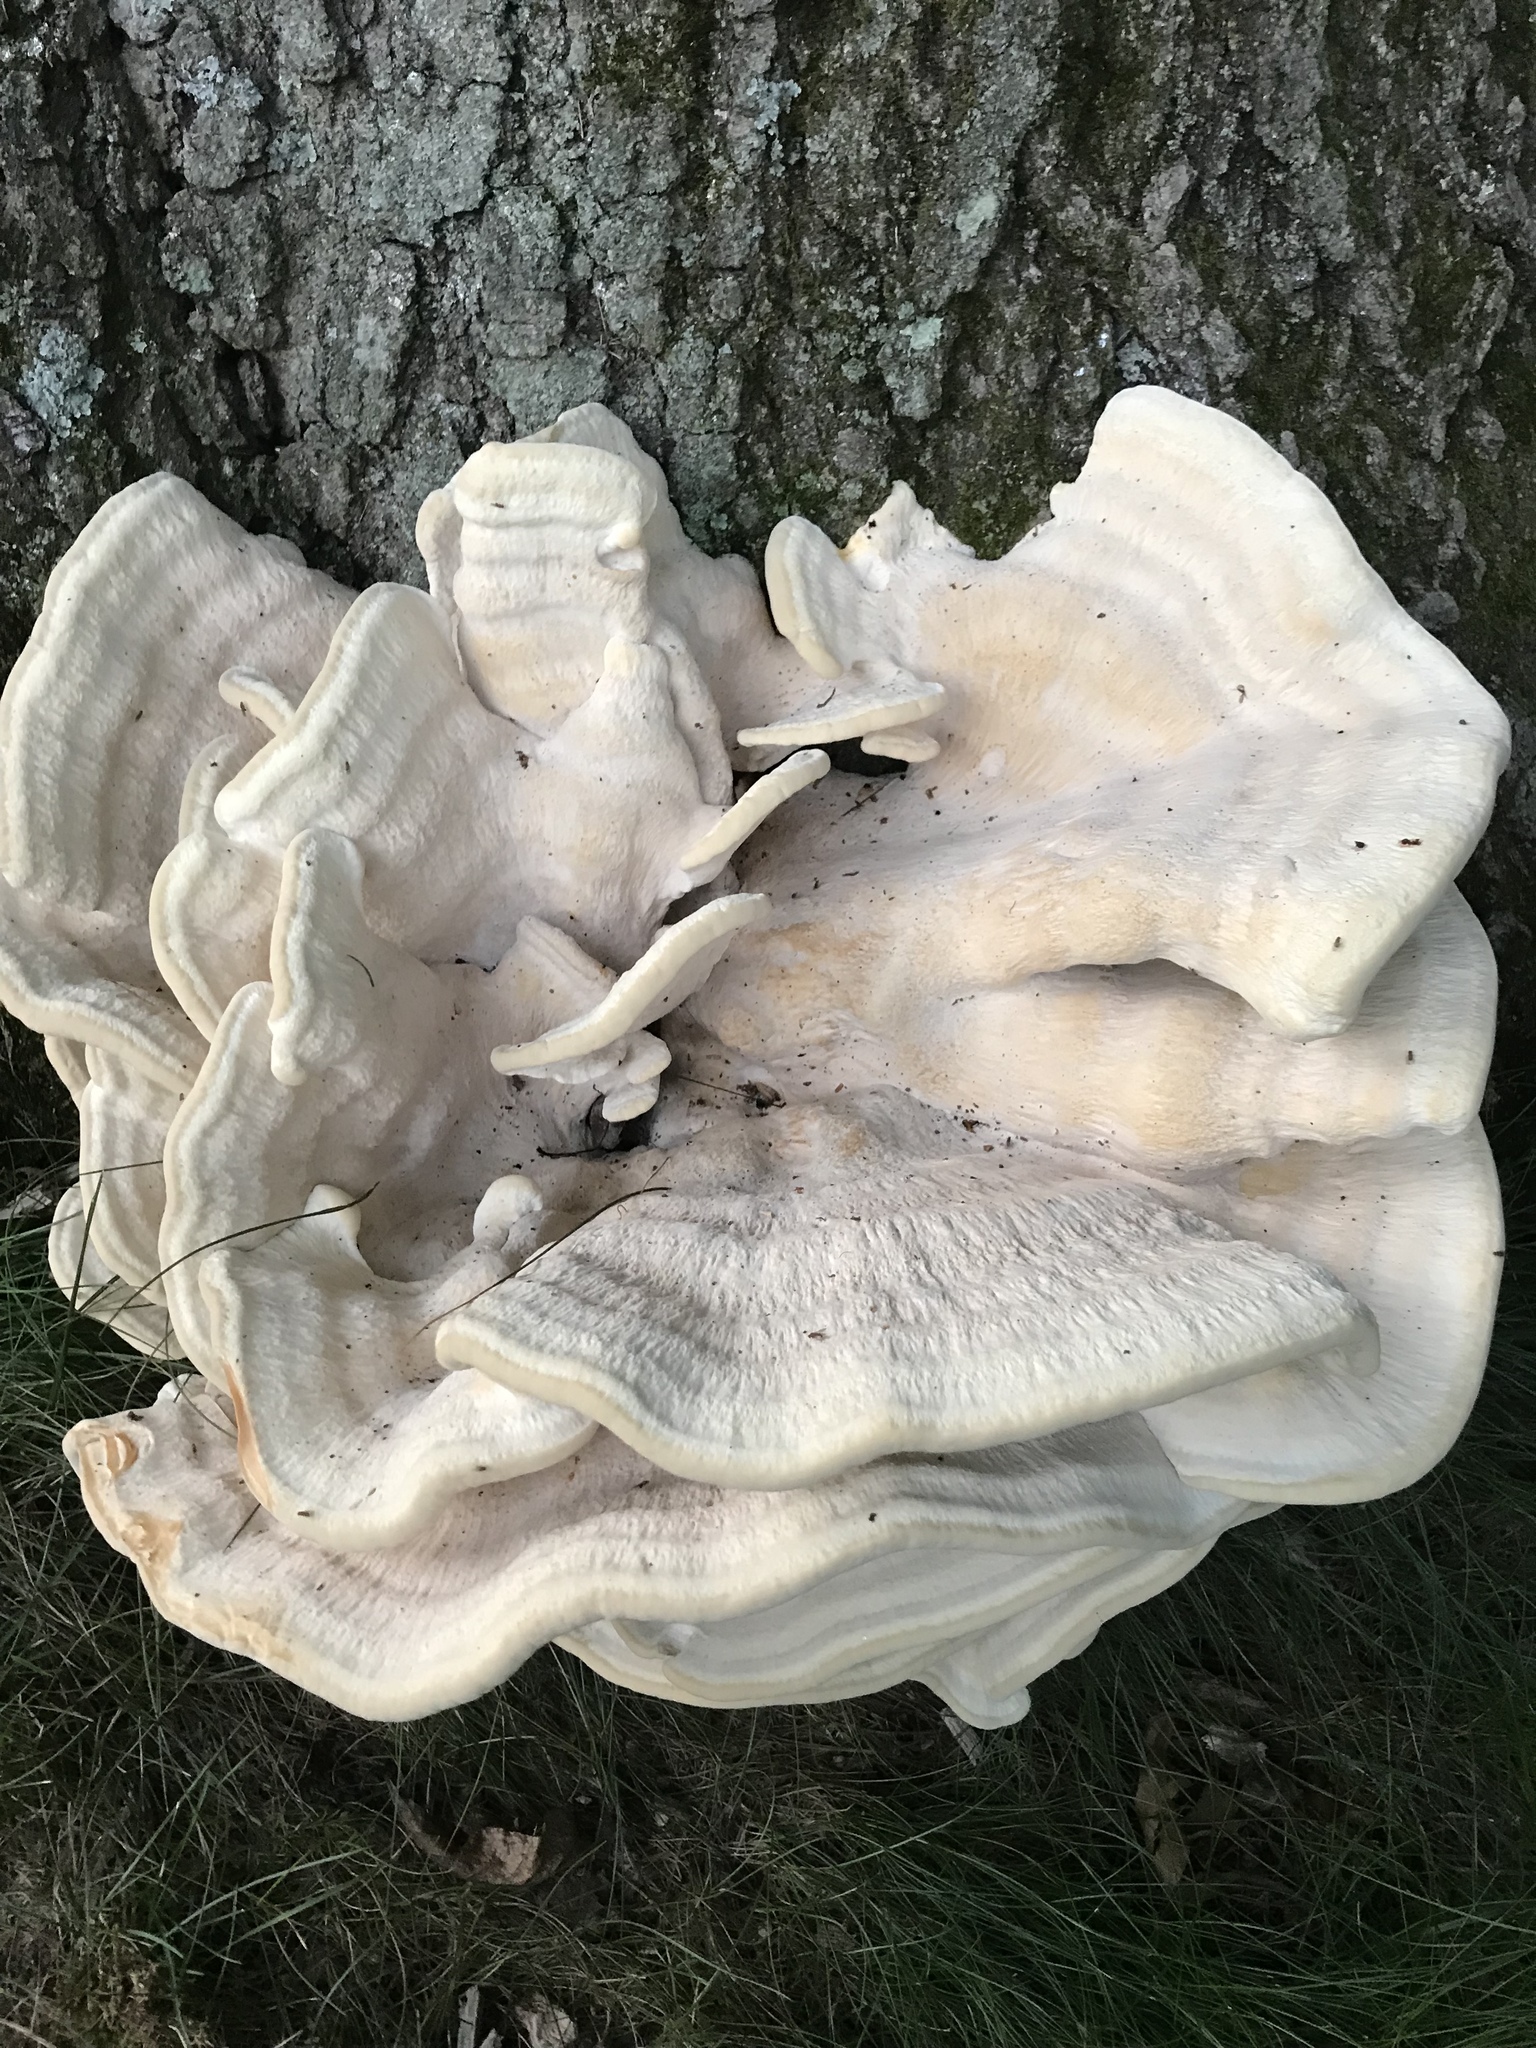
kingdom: Fungi
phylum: Basidiomycota
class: Agaricomycetes
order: Russulales
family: Bondarzewiaceae
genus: Bondarzewia
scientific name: Bondarzewia berkeleyi
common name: Berkeley's polypore
